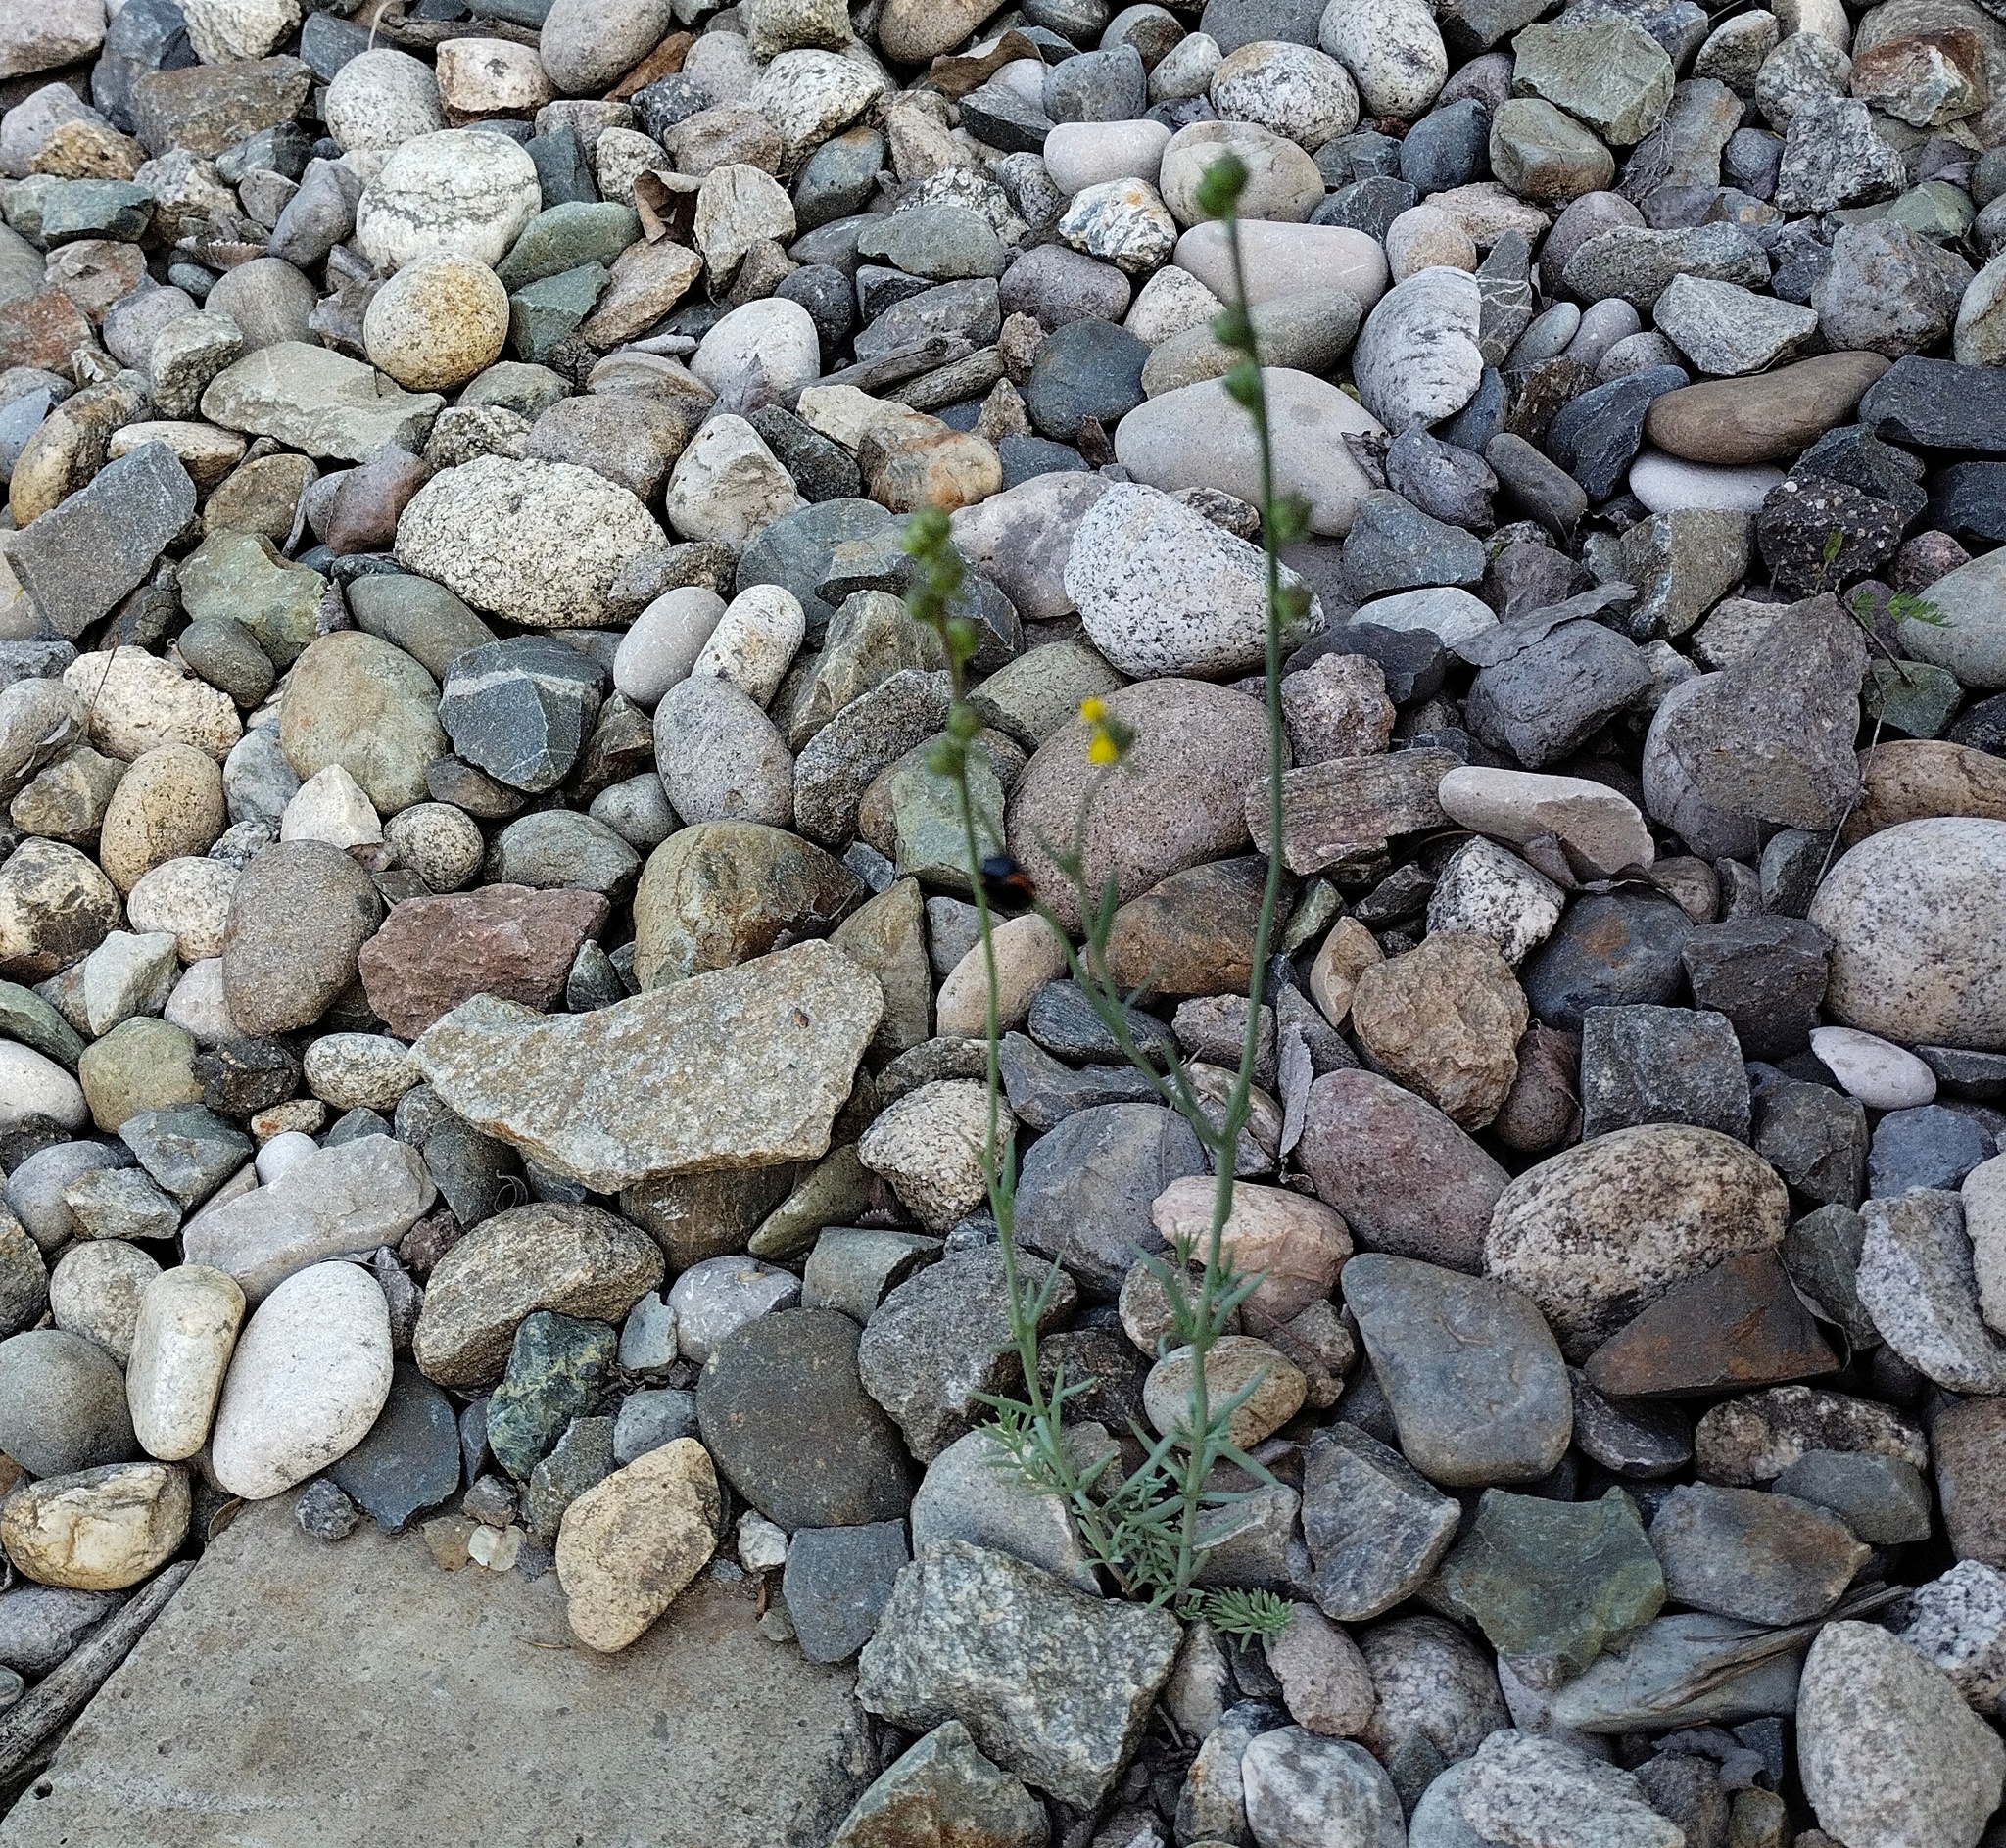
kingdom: Plantae
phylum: Tracheophyta
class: Magnoliopsida
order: Lamiales
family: Plantaginaceae
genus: Linaria
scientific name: Linaria simplex
